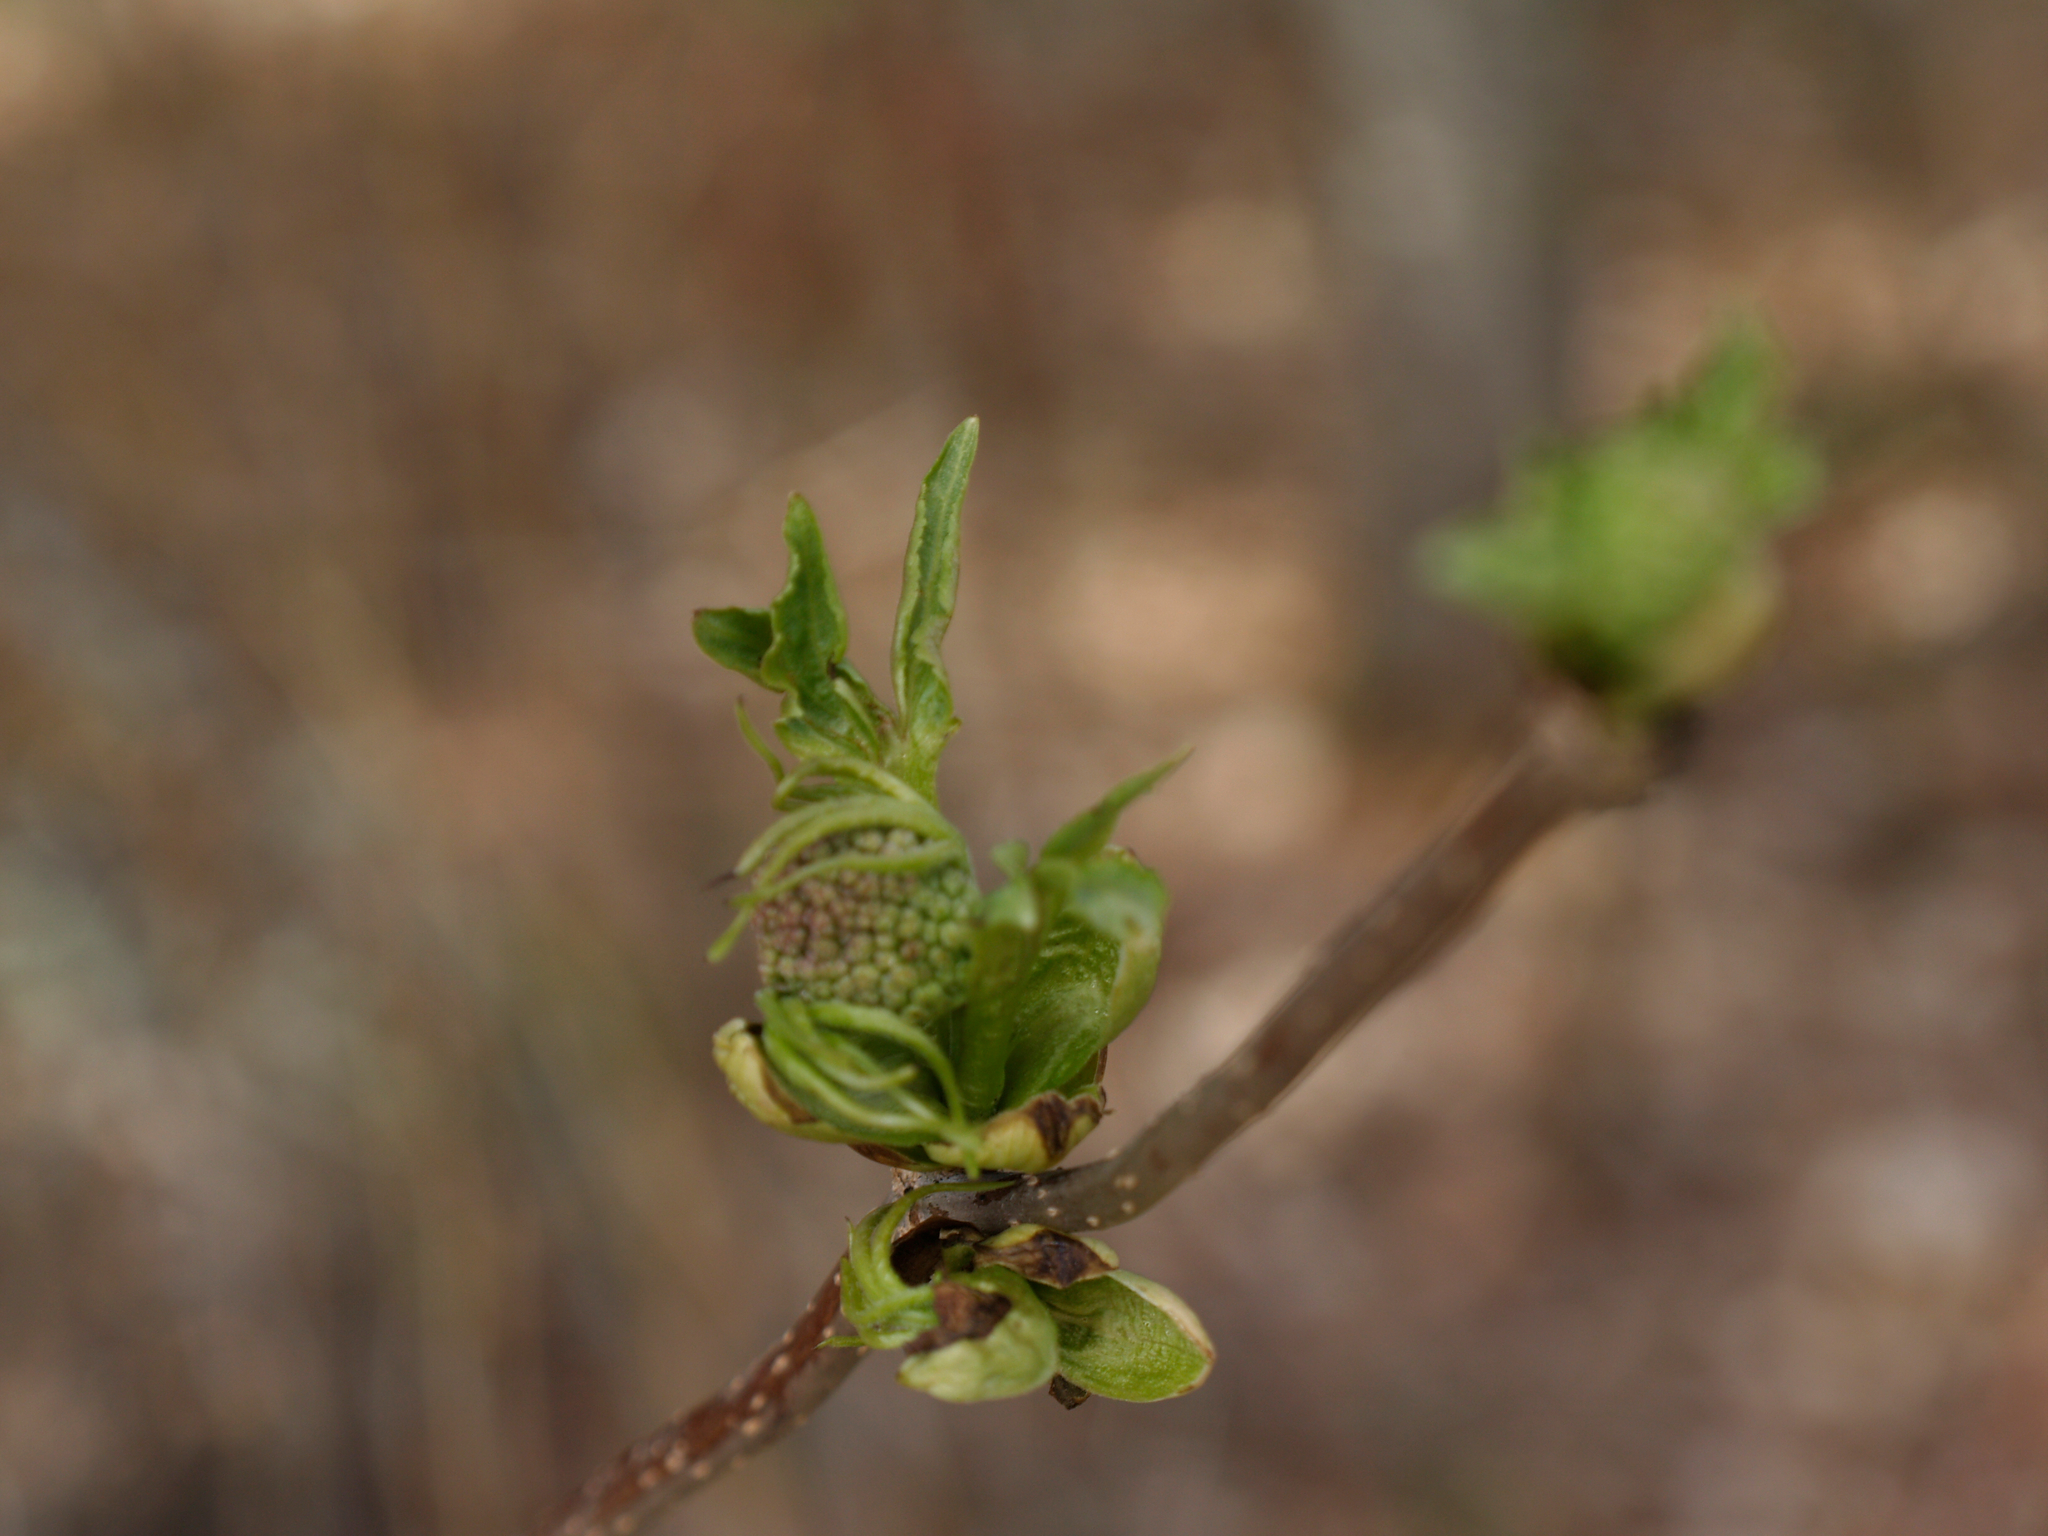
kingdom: Plantae
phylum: Tracheophyta
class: Magnoliopsida
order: Dipsacales
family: Viburnaceae
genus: Sambucus
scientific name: Sambucus racemosa
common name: Red-berried elder
